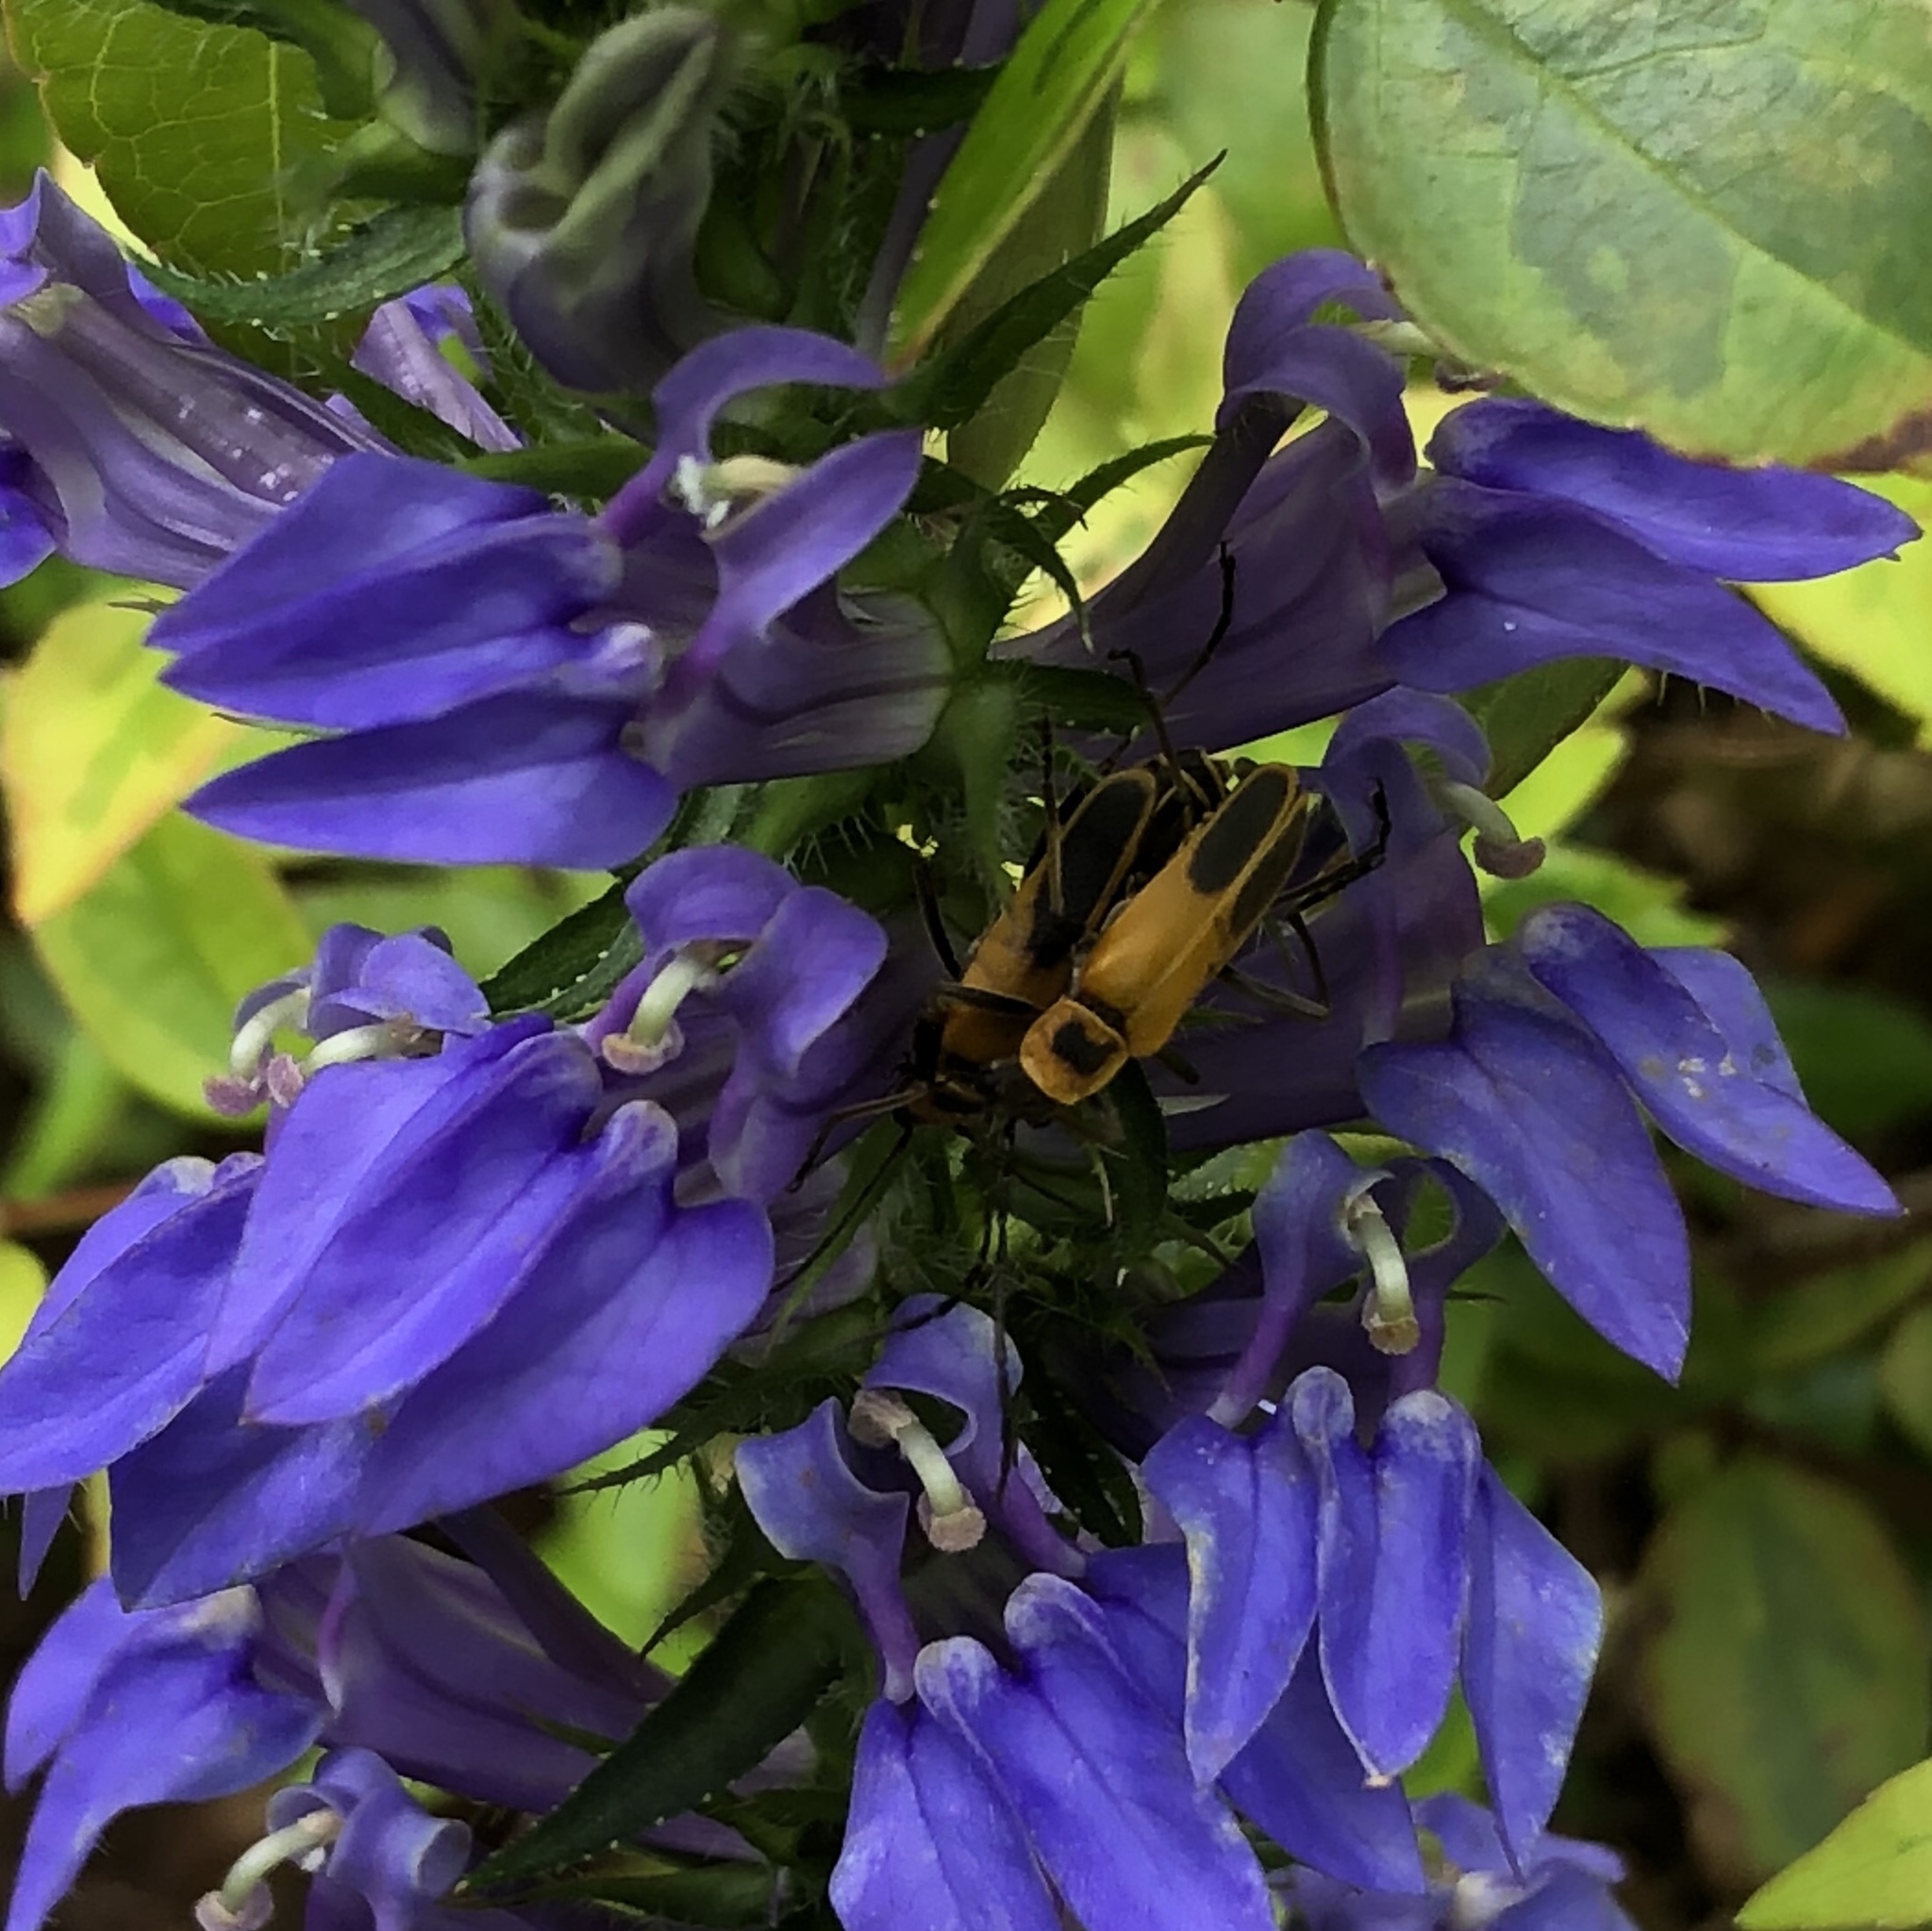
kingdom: Animalia
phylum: Arthropoda
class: Insecta
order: Coleoptera
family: Cantharidae
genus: Chauliognathus
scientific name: Chauliognathus pensylvanicus
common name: Goldenrod soldier beetle
